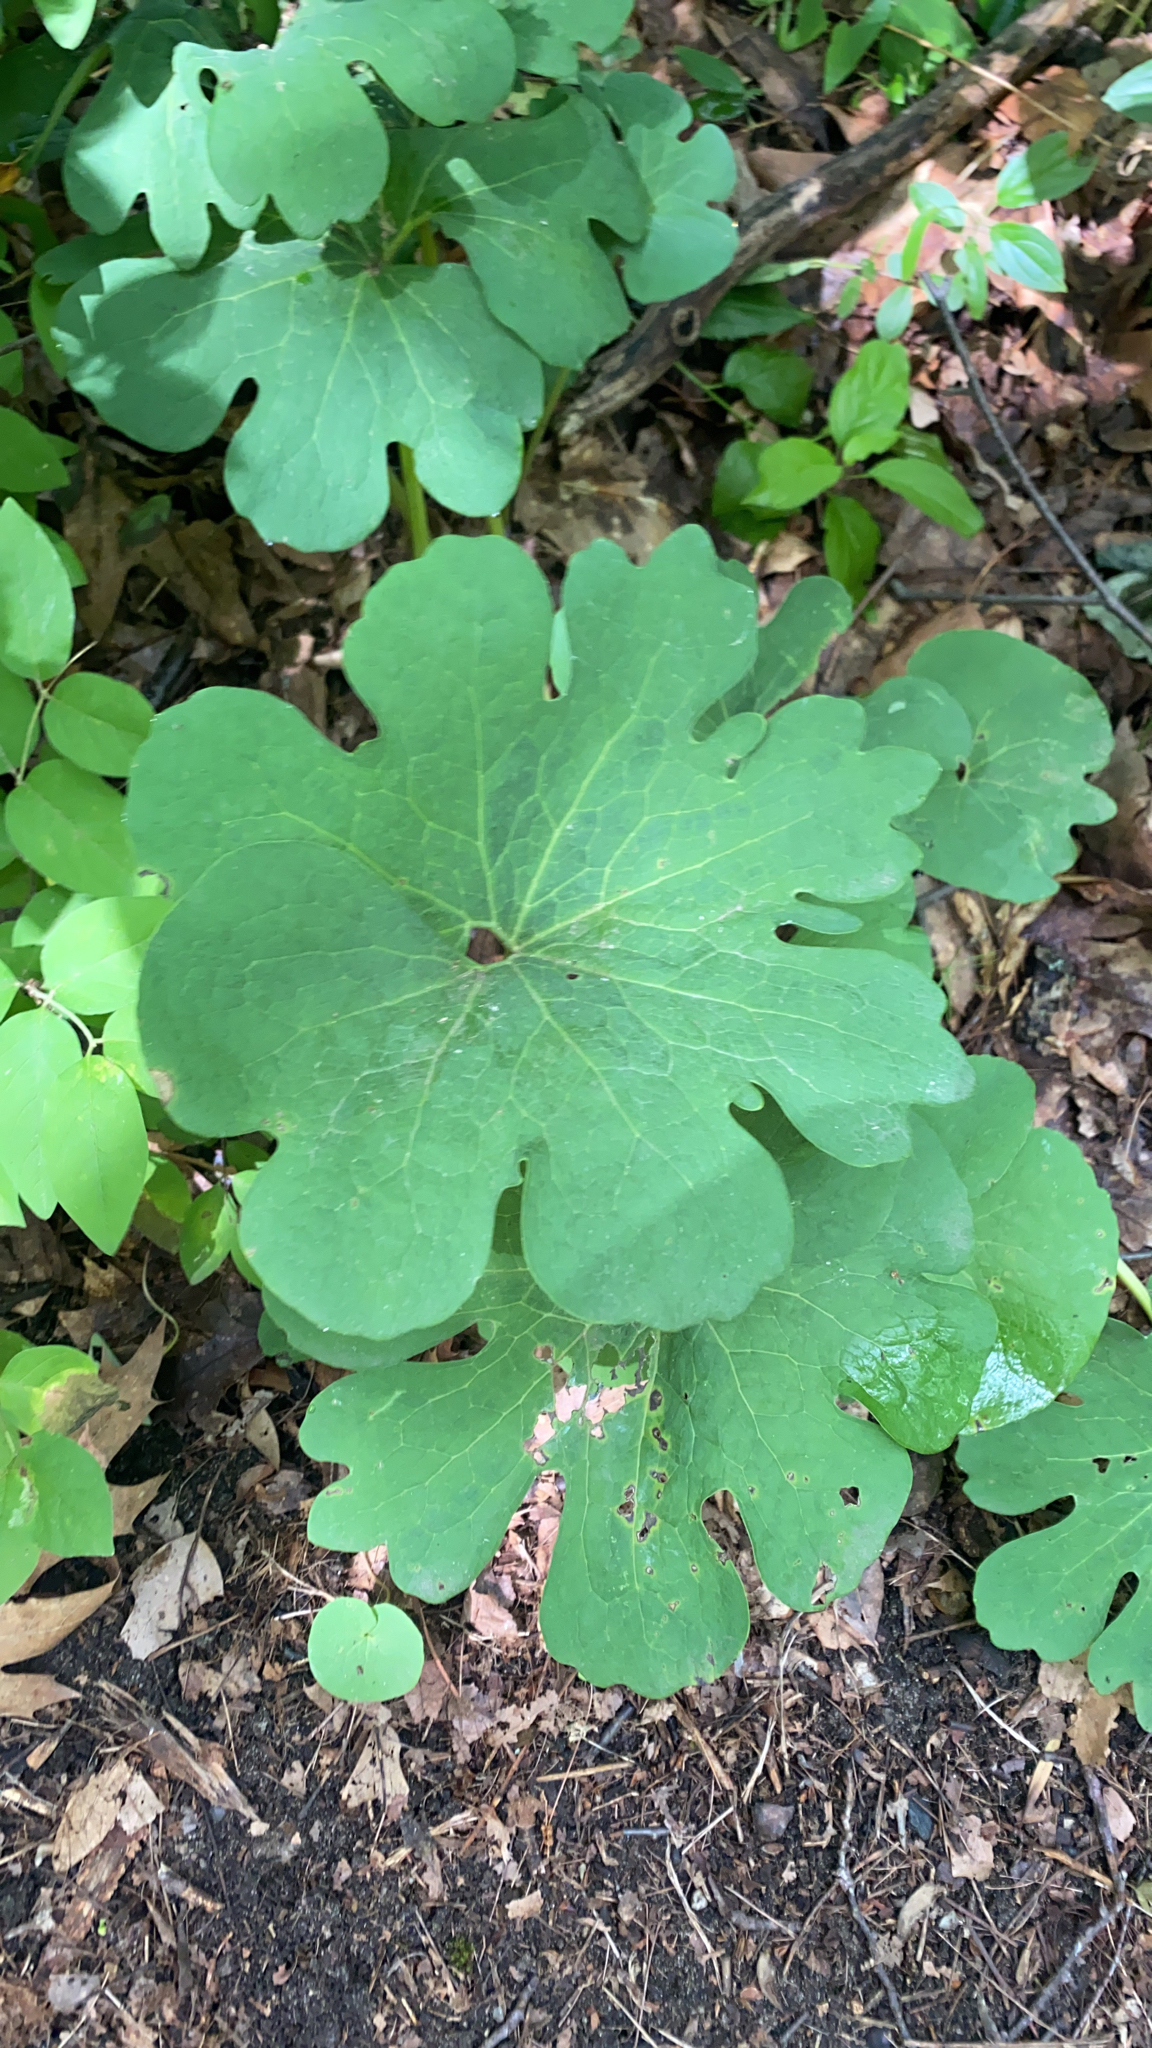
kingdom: Plantae
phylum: Tracheophyta
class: Magnoliopsida
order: Ranunculales
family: Papaveraceae
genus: Sanguinaria
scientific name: Sanguinaria canadensis
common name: Bloodroot
